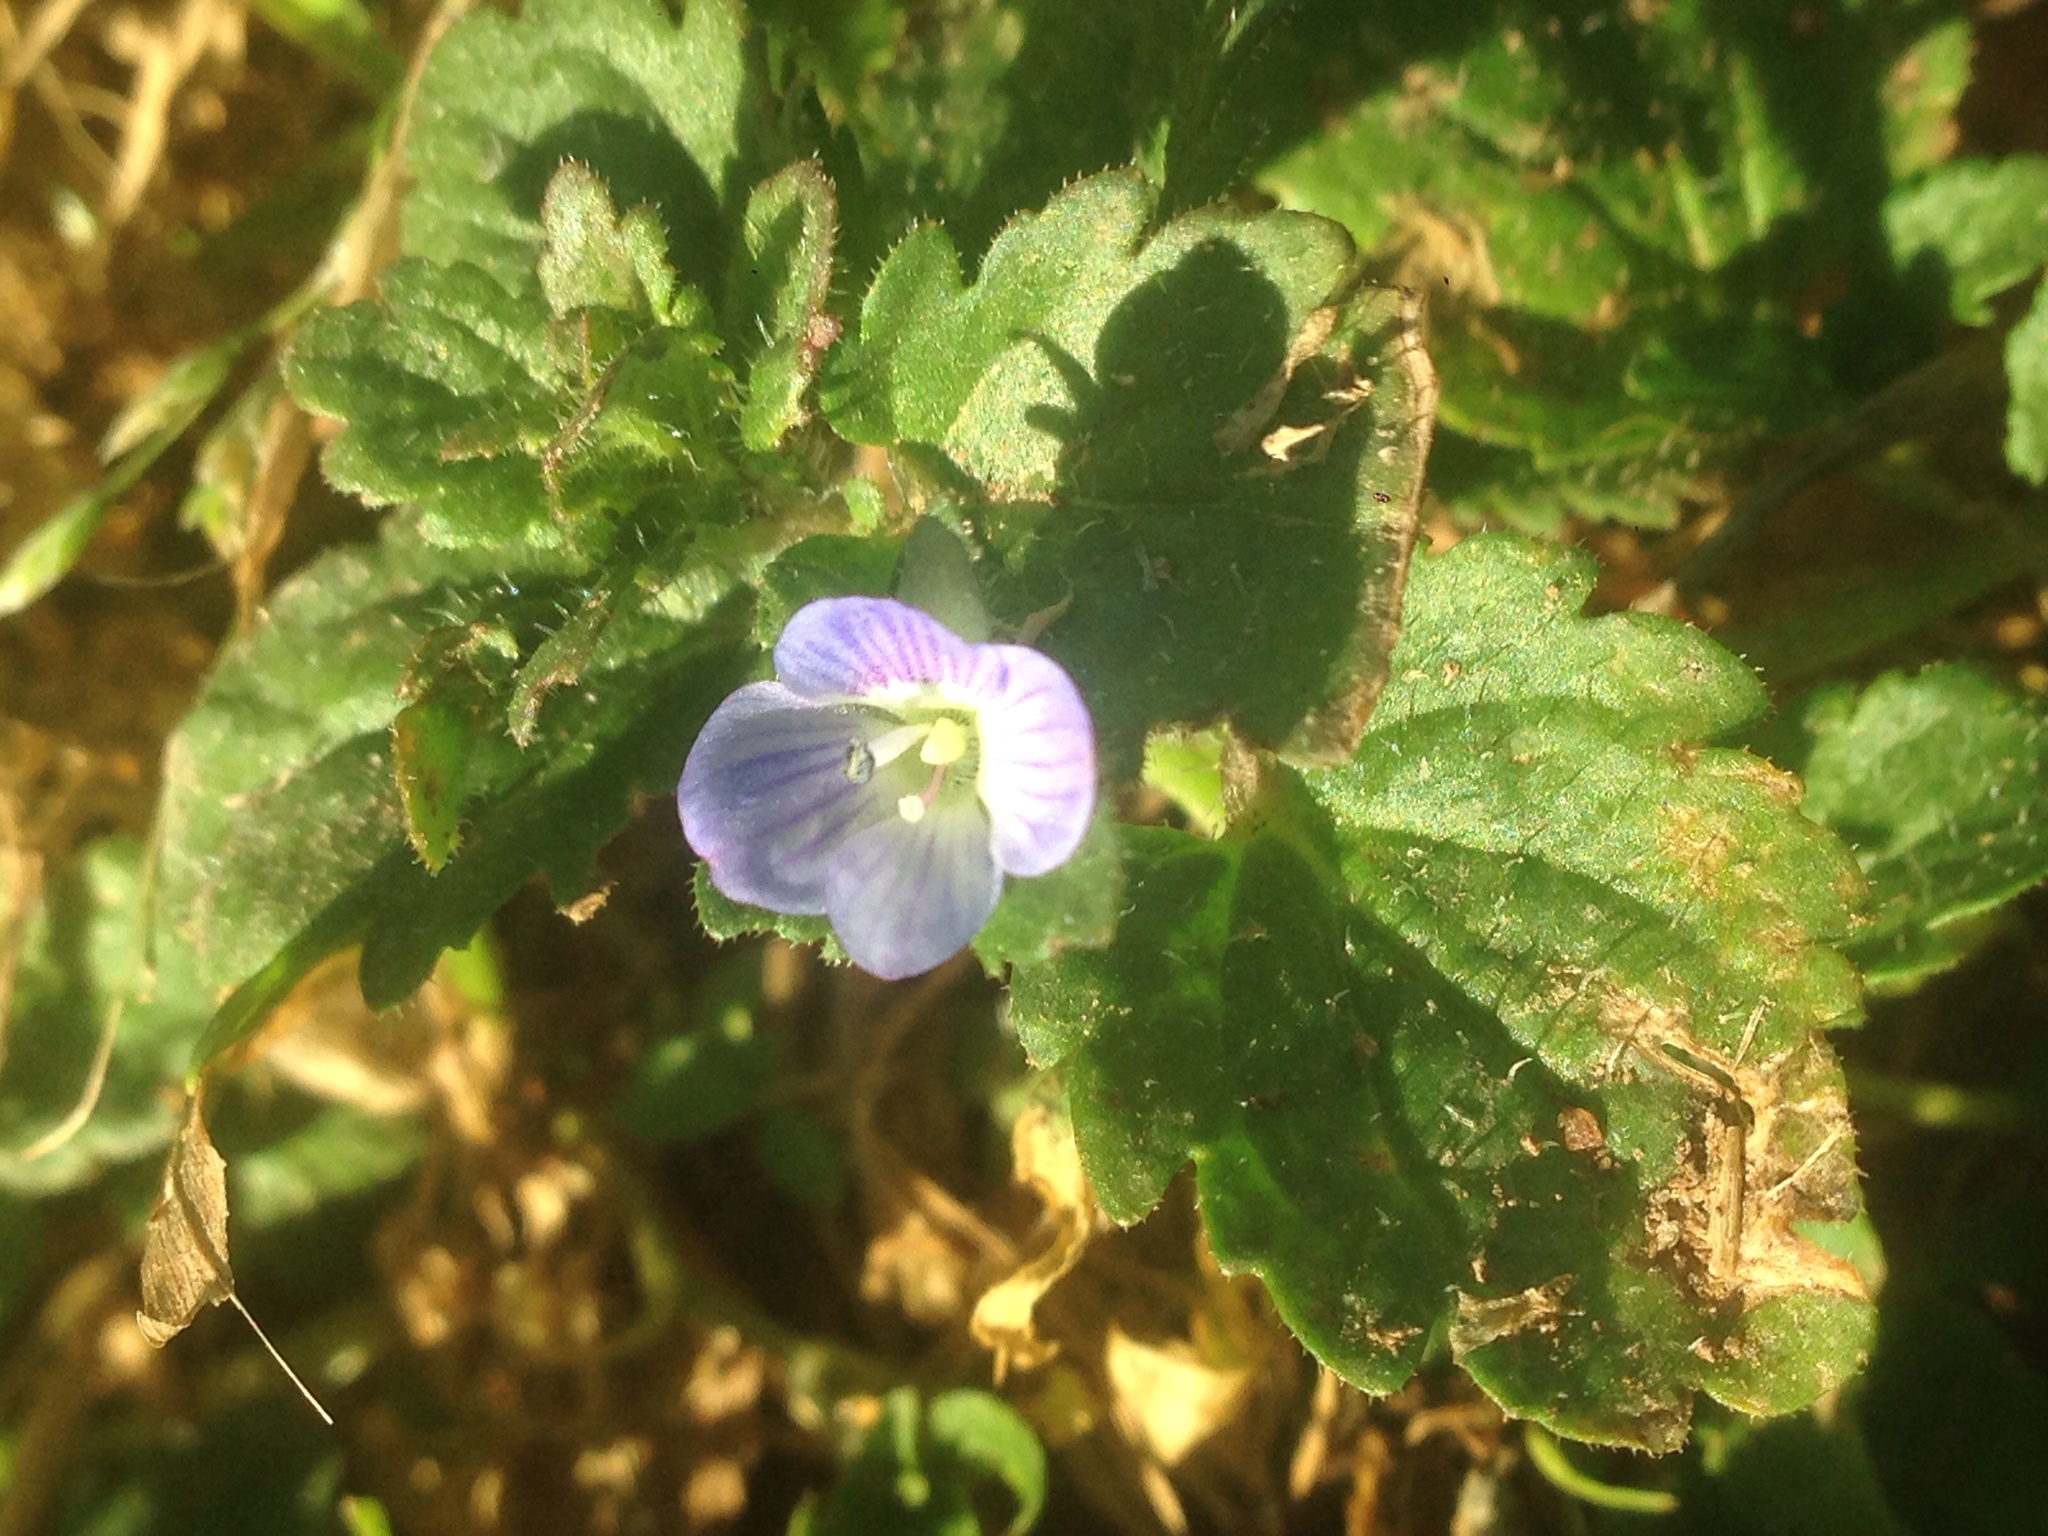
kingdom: Plantae
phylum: Tracheophyta
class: Magnoliopsida
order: Lamiales
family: Plantaginaceae
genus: Veronica
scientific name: Veronica persica
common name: Common field-speedwell
